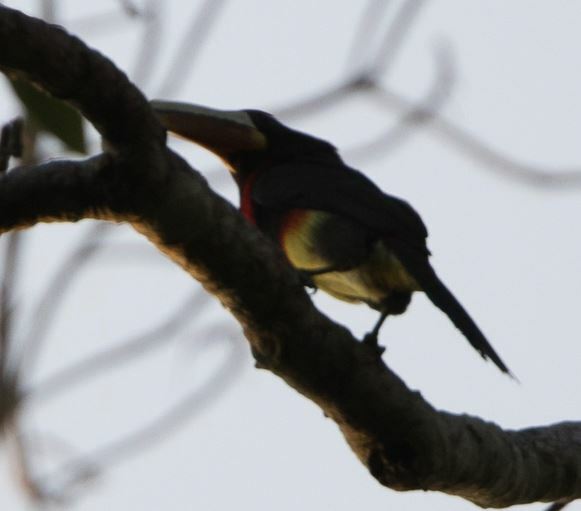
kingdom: Animalia
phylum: Chordata
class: Aves
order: Piciformes
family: Ramphastidae
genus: Pteroglossus
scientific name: Pteroglossus azara
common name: Ivory-billed aracari
